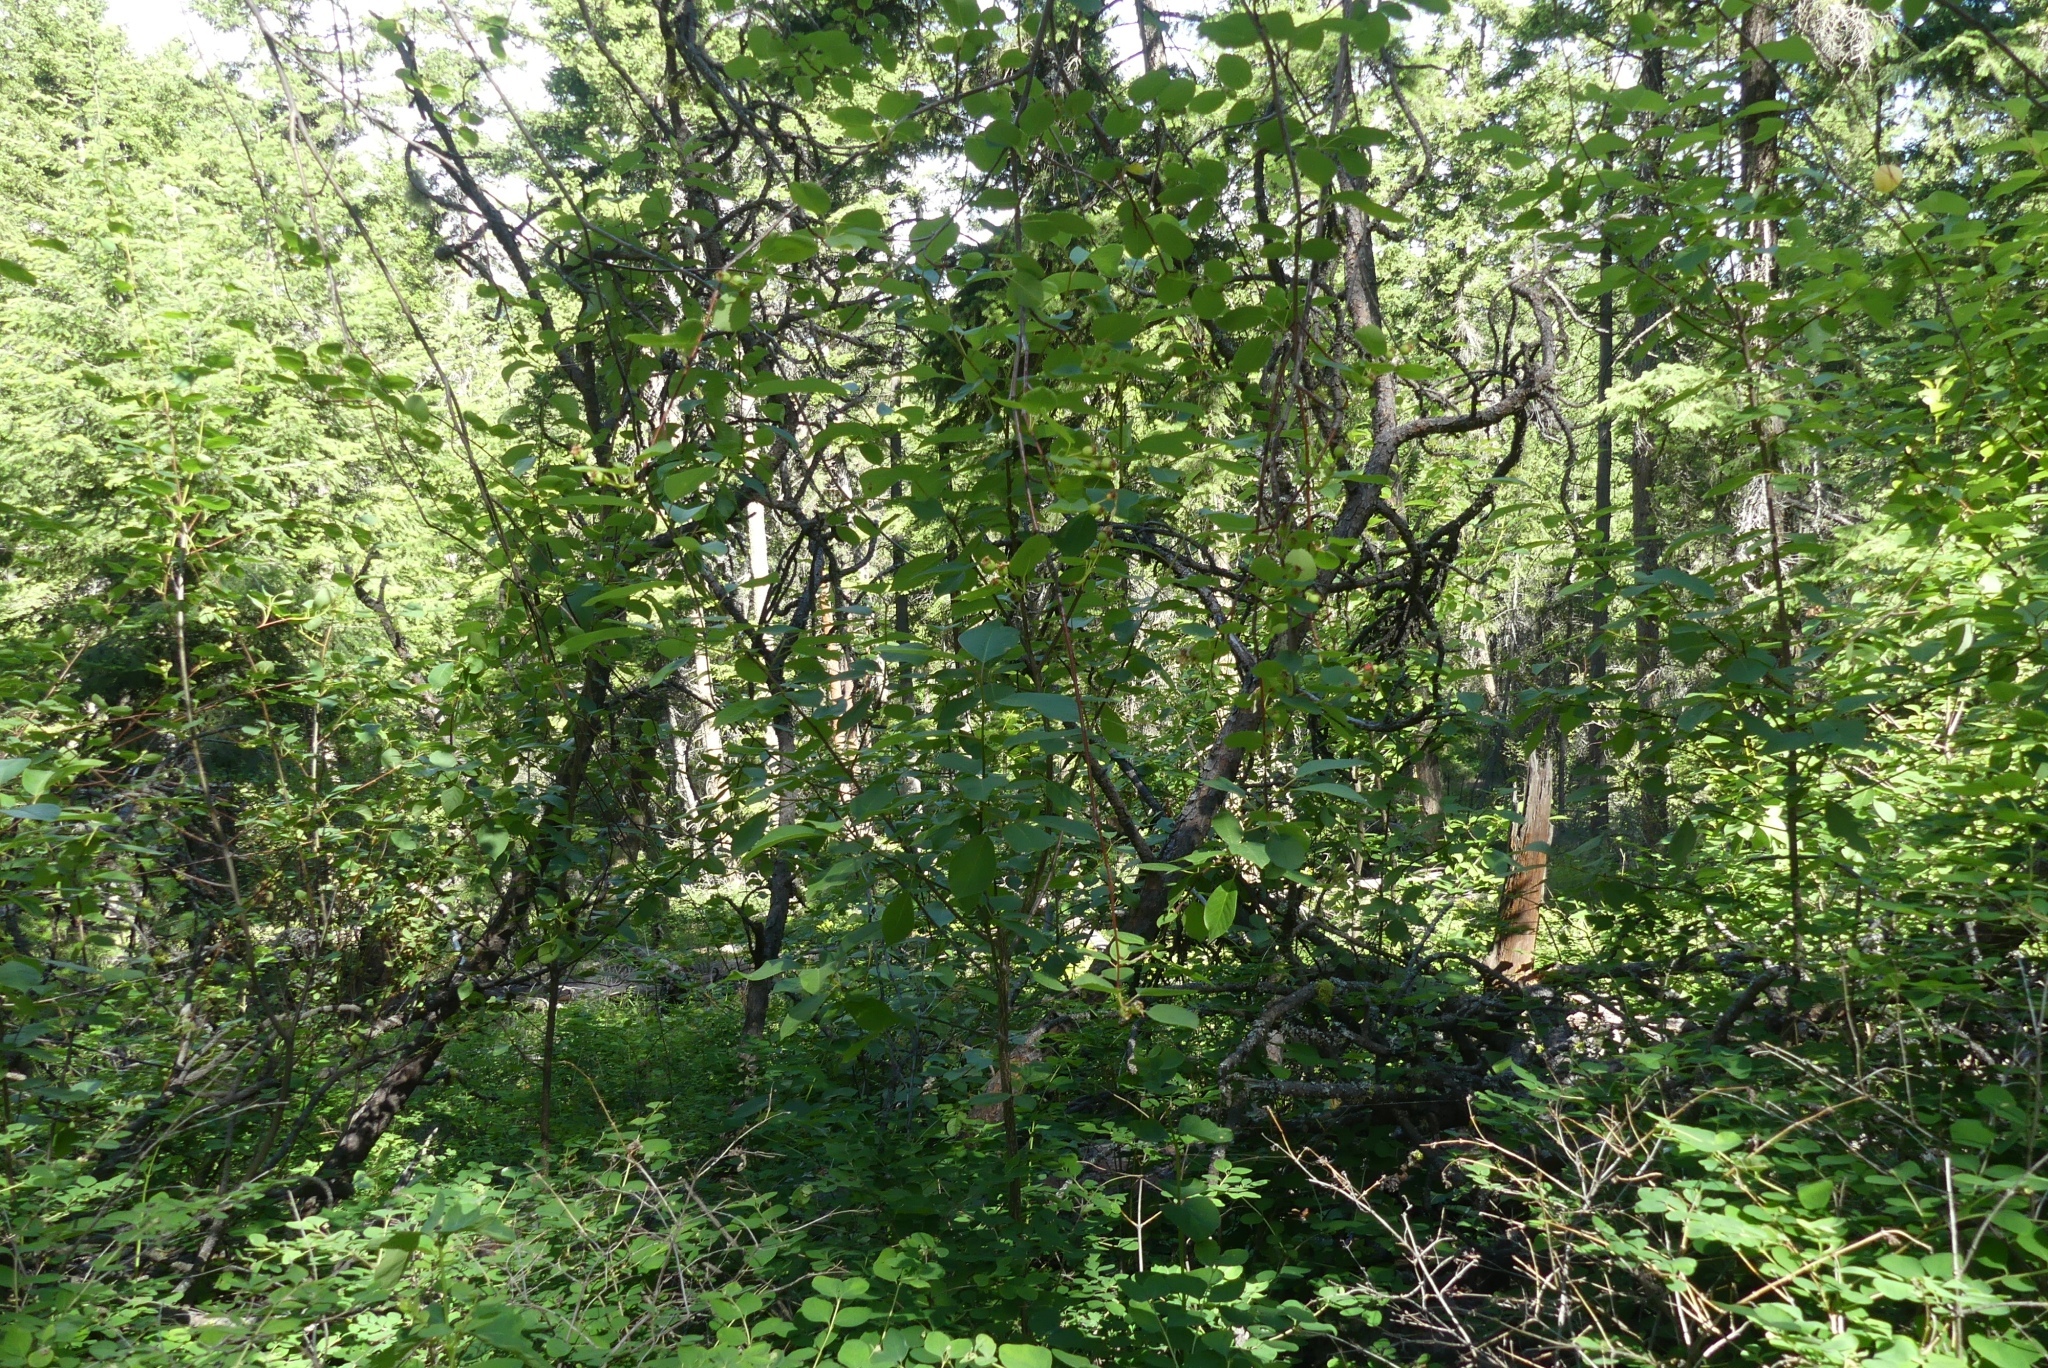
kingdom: Plantae
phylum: Tracheophyta
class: Magnoliopsida
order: Rosales
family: Rosaceae
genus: Amelanchier
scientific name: Amelanchier alnifolia
